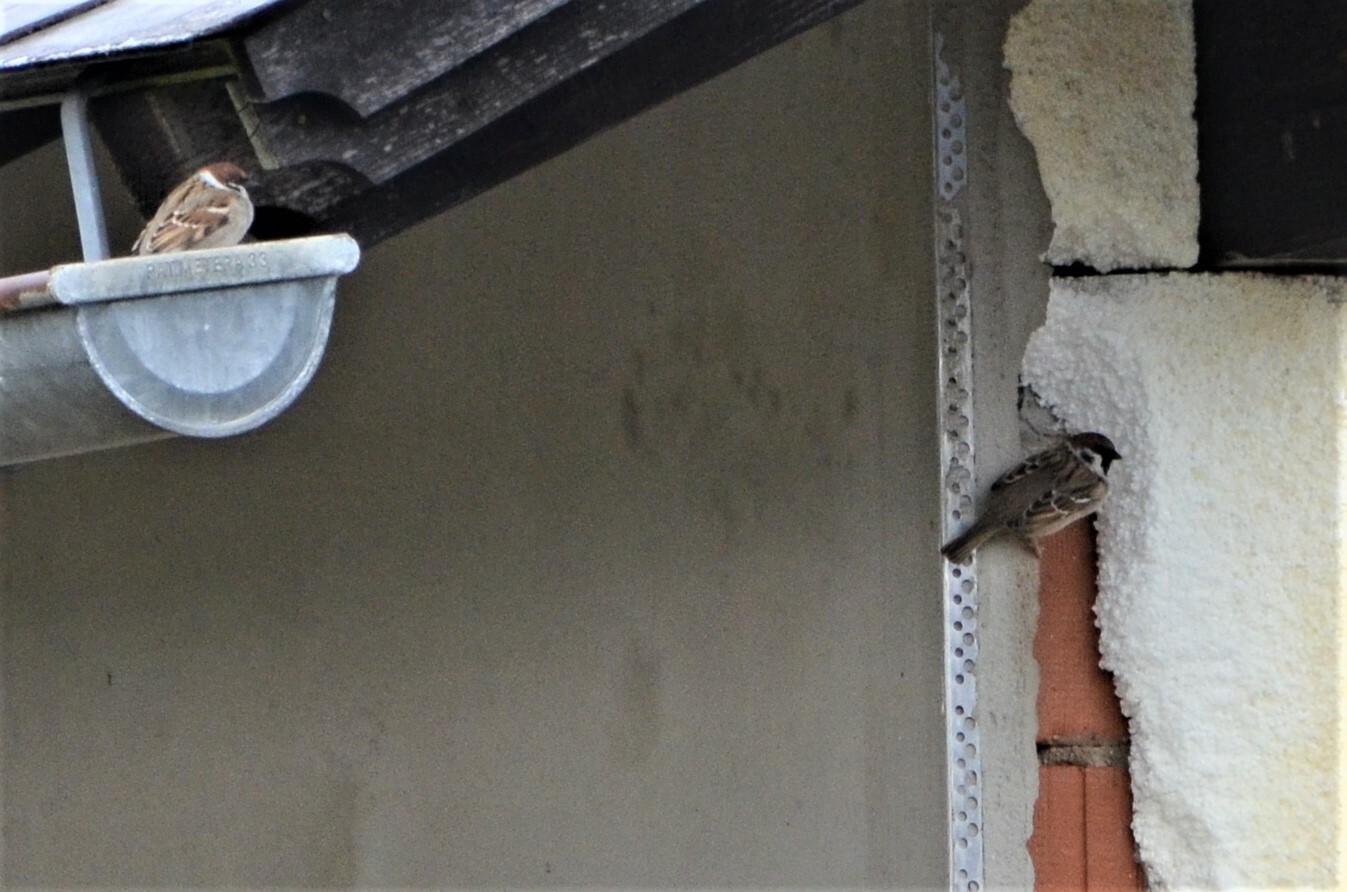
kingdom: Animalia
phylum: Chordata
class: Aves
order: Passeriformes
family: Passeridae
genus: Passer
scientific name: Passer montanus
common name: Eurasian tree sparrow
